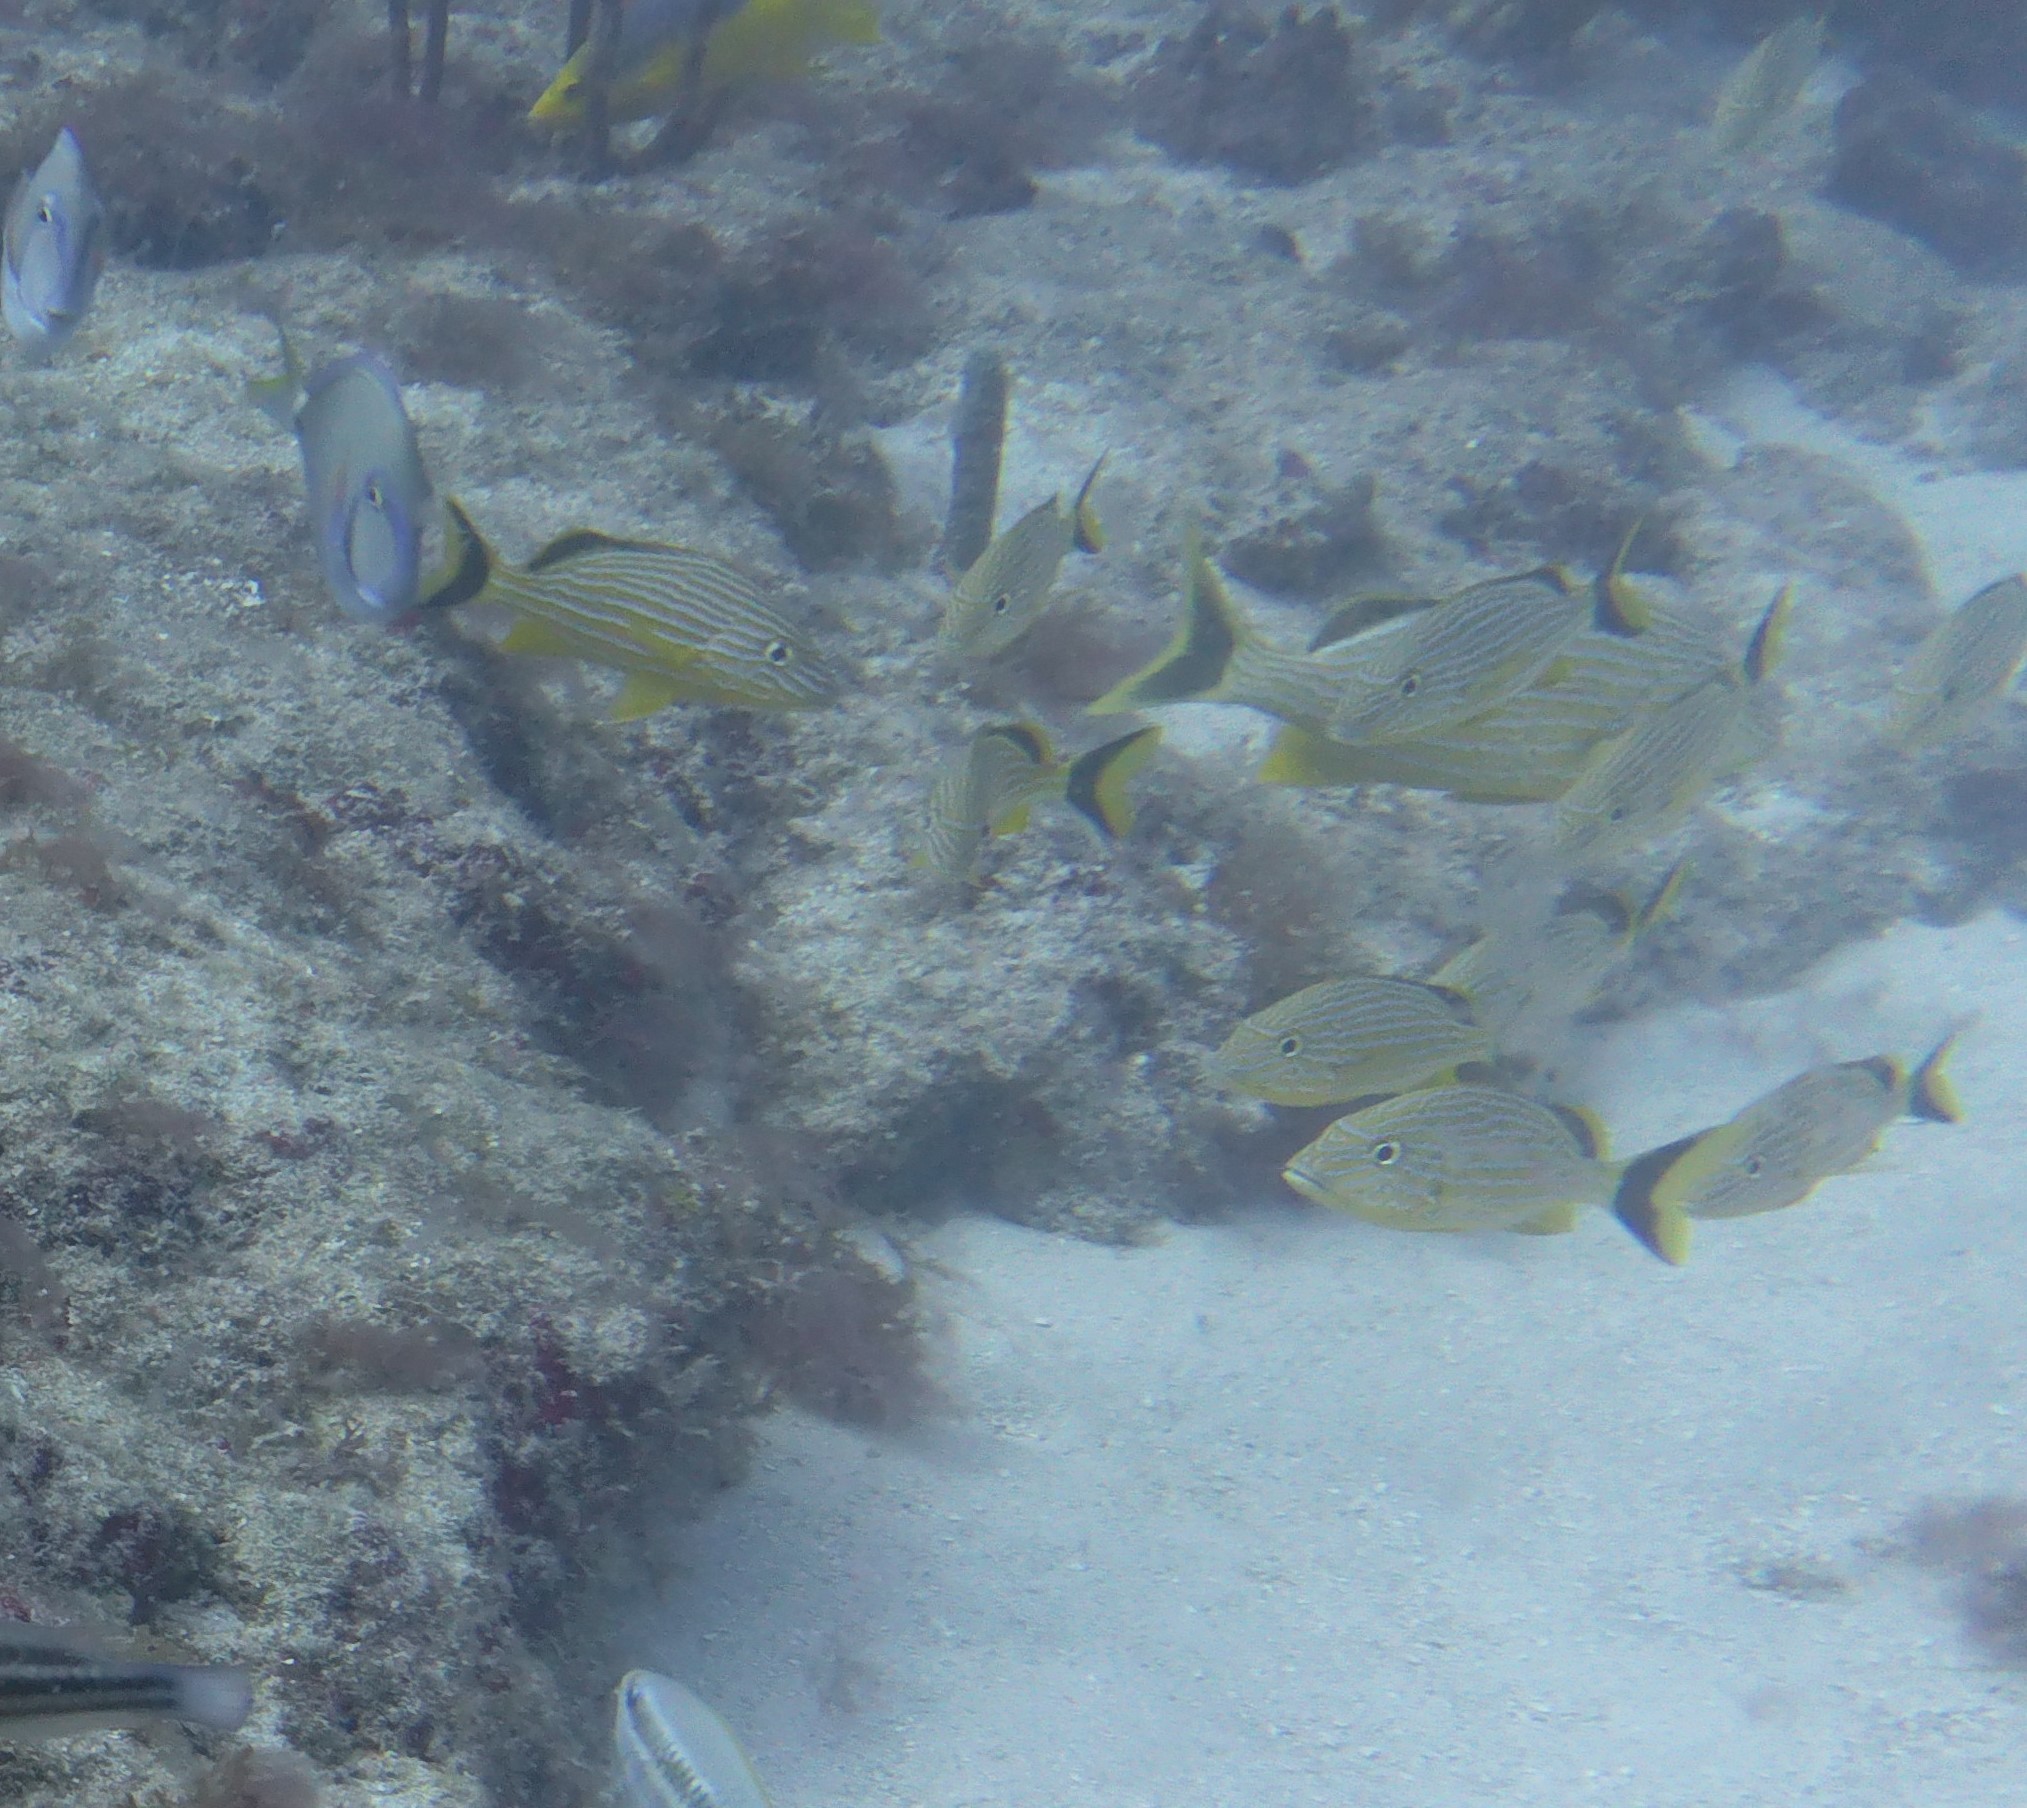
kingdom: Animalia
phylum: Chordata
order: Perciformes
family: Haemulidae
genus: Haemulon
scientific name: Haemulon sciurus
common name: Bluestriped grunt
